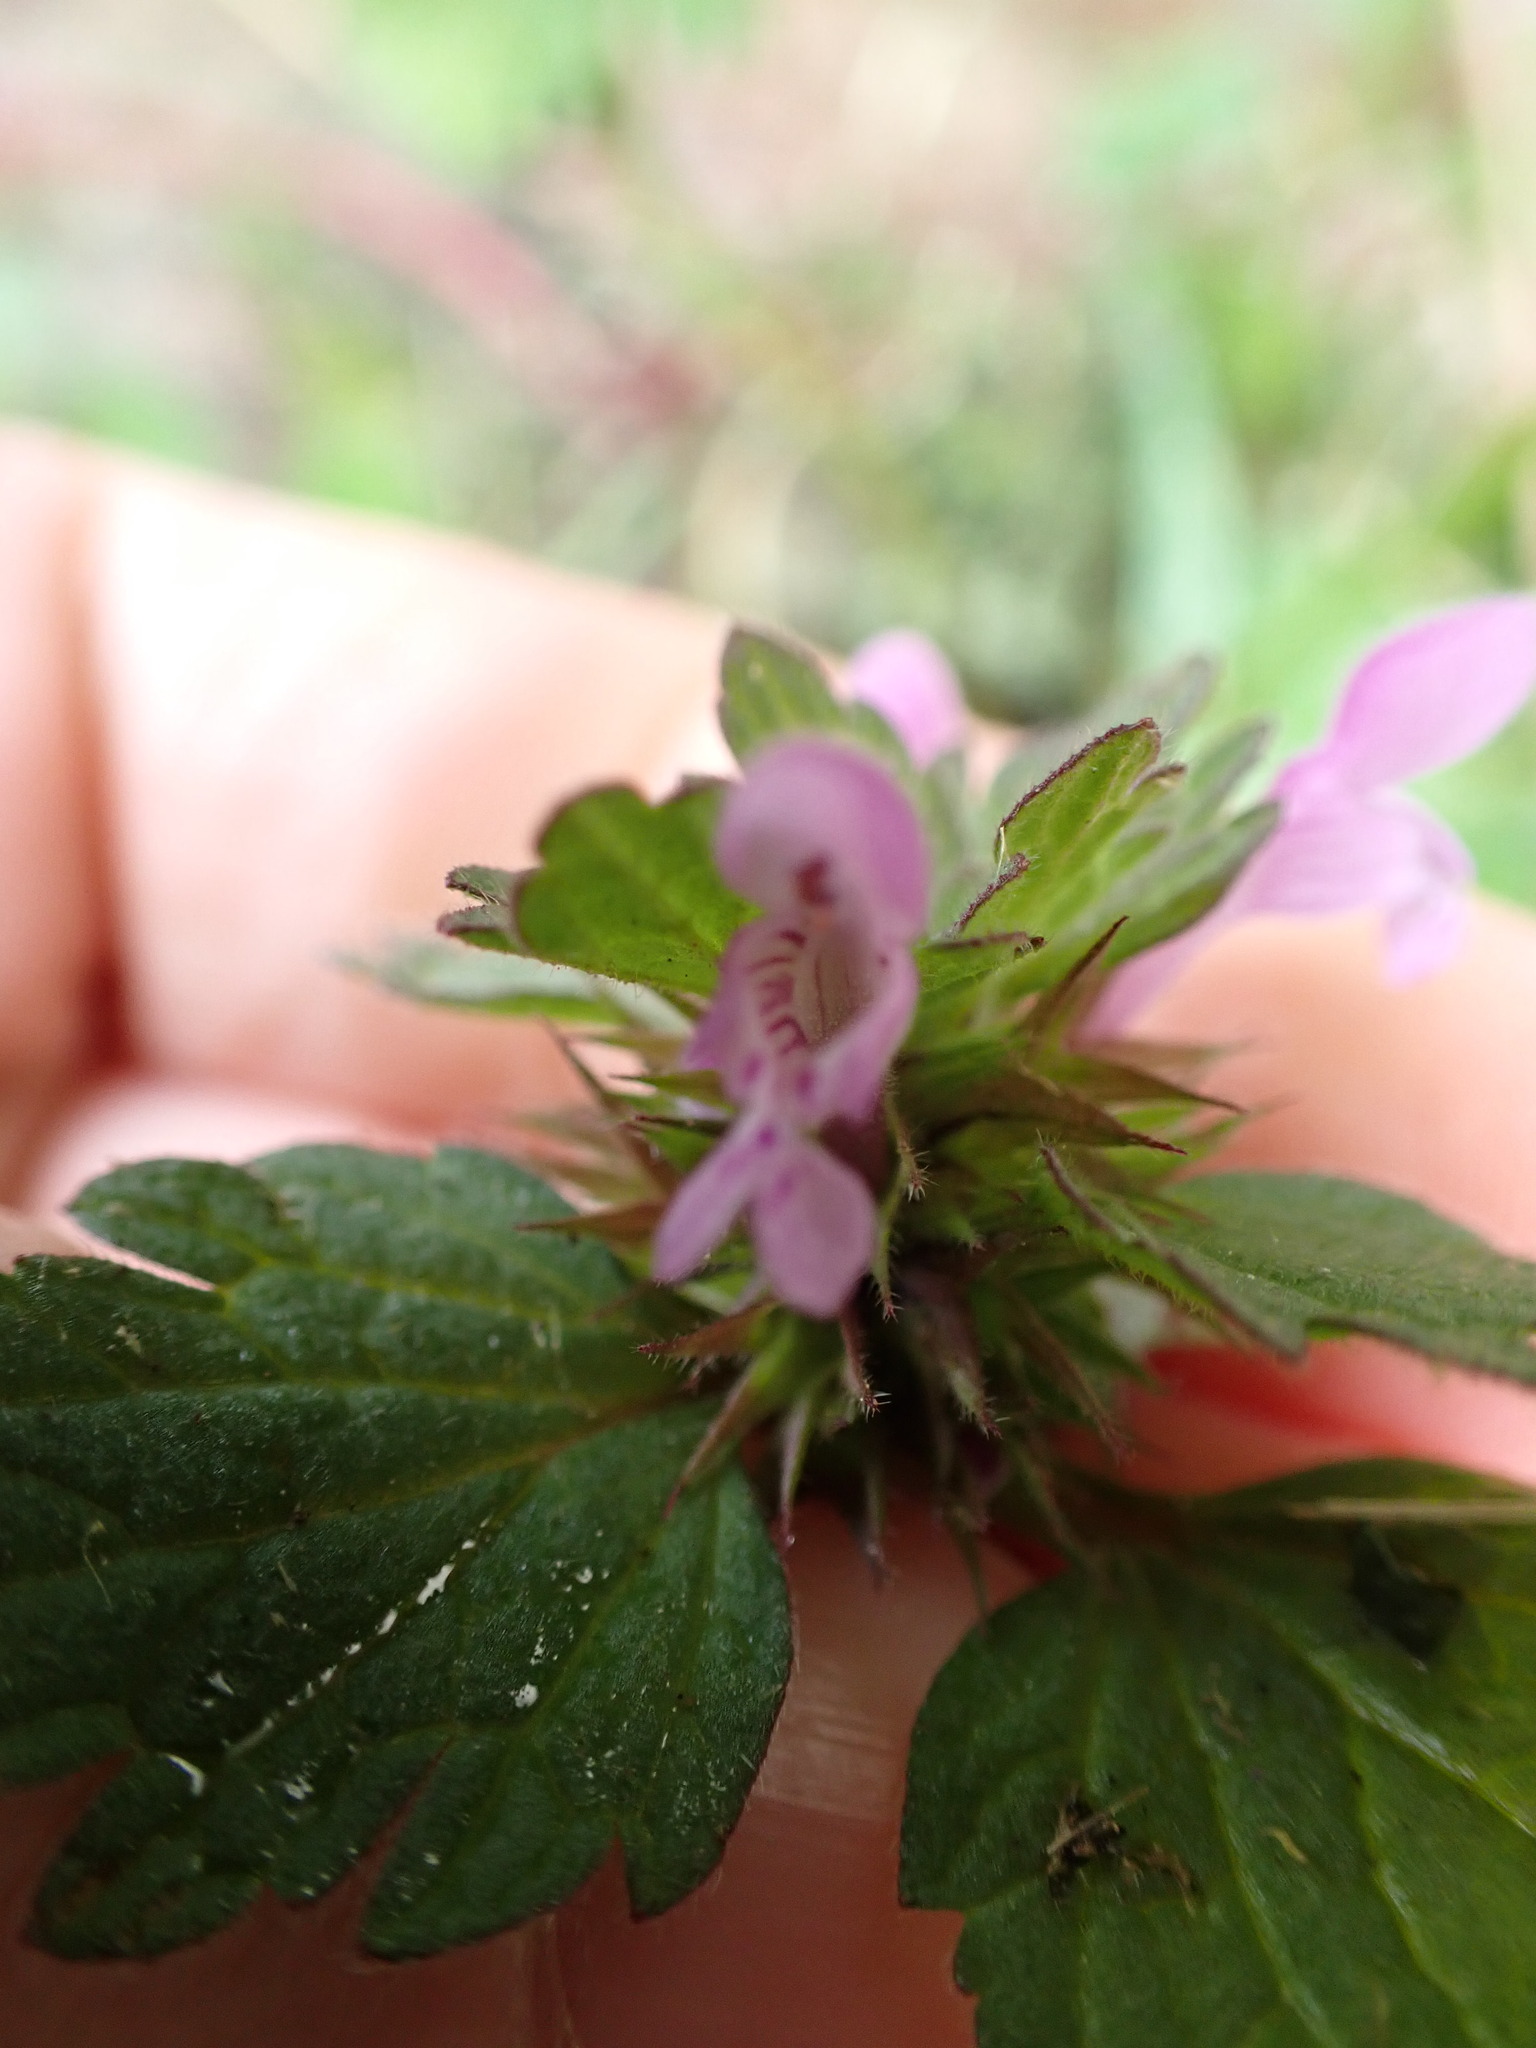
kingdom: Plantae
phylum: Tracheophyta
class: Magnoliopsida
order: Lamiales
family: Lamiaceae
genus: Lamium
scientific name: Lamium hybridum
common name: Cut-leaved dead-nettle
